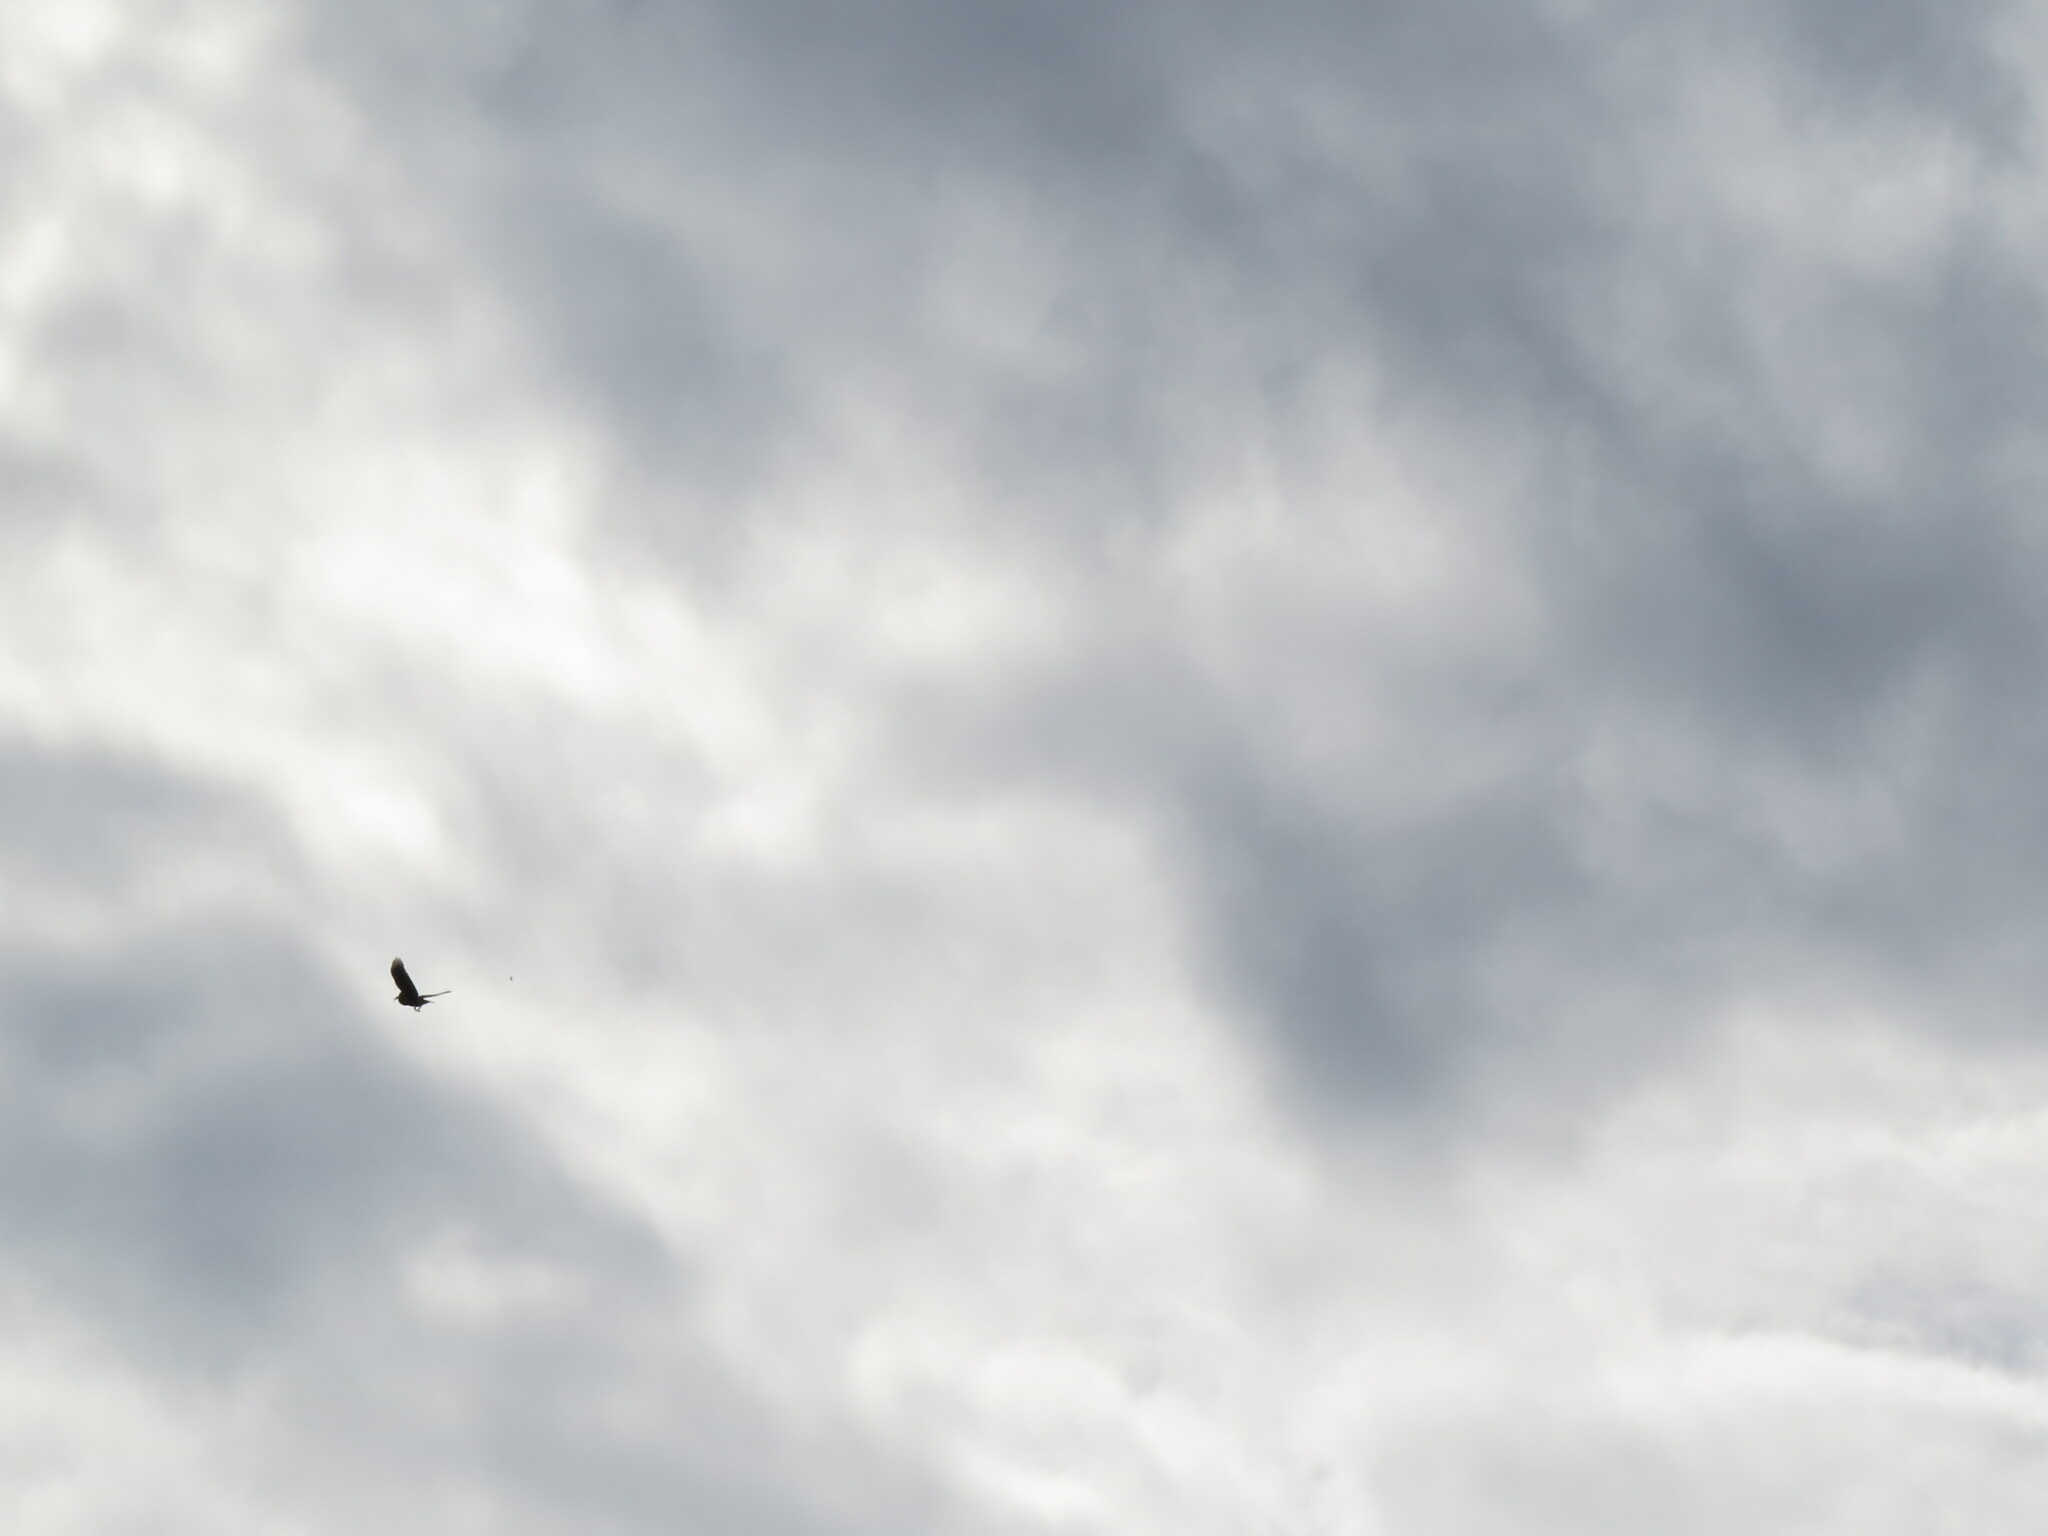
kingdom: Animalia
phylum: Chordata
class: Aves
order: Passeriformes
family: Corvidae
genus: Nucifraga
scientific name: Nucifraga caryocatactes
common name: Spotted nutcracker
